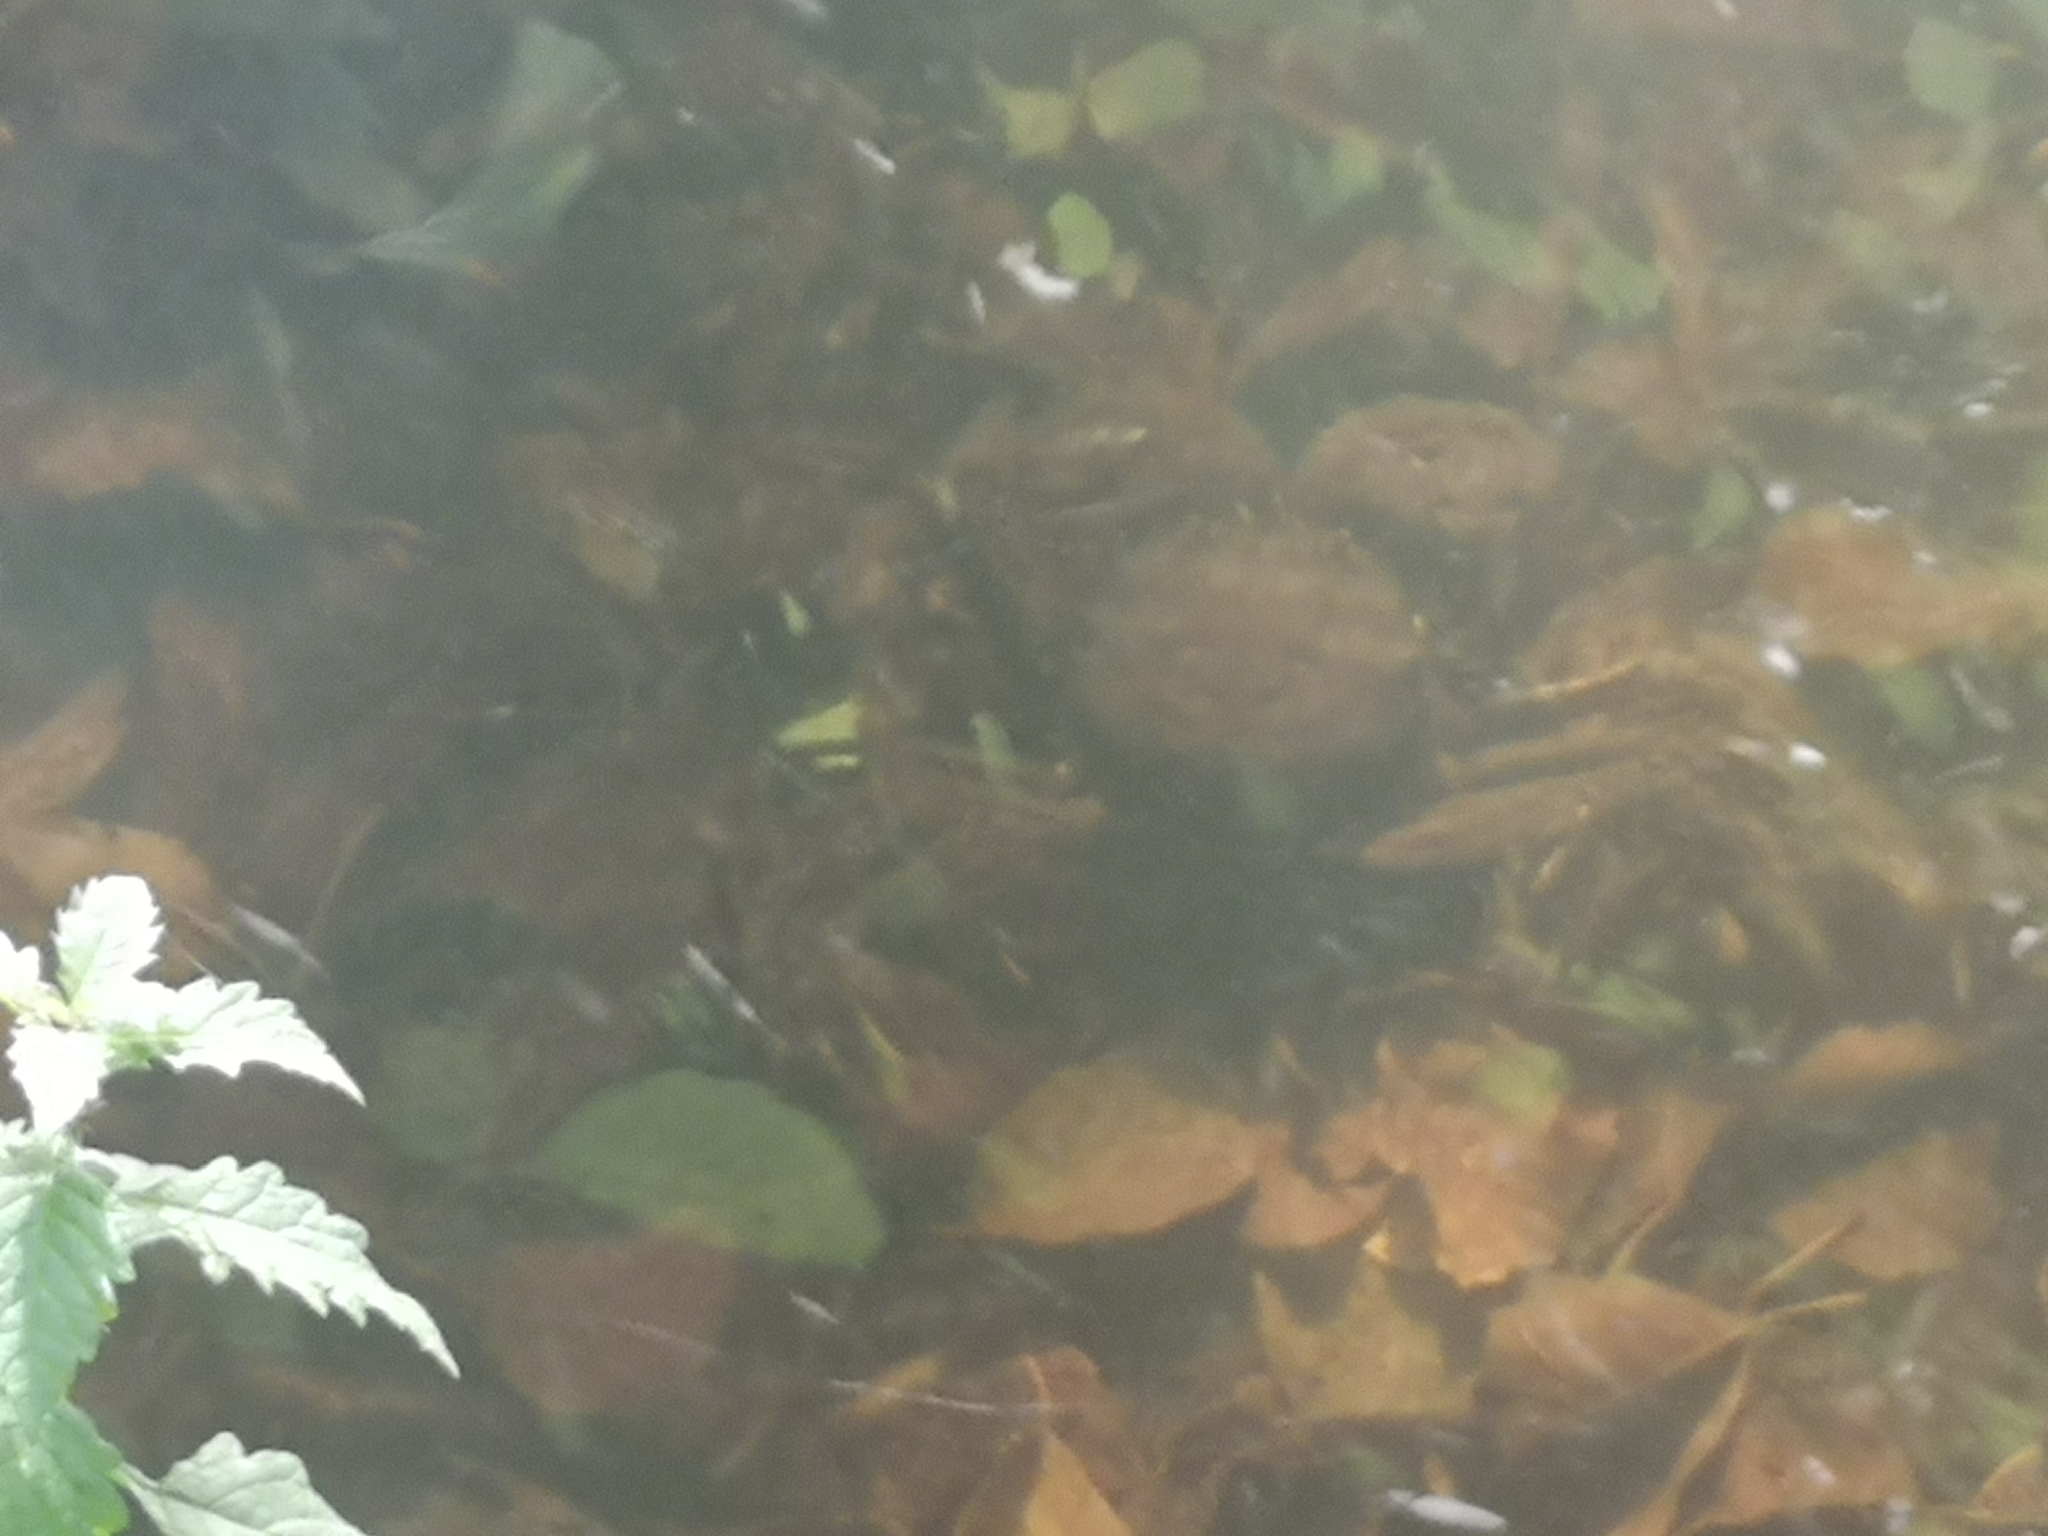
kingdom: Animalia
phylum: Arthropoda
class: Malacostraca
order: Decapoda
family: Varunidae
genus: Eriocheir
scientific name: Eriocheir sinensis
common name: Chinese mitten crab
